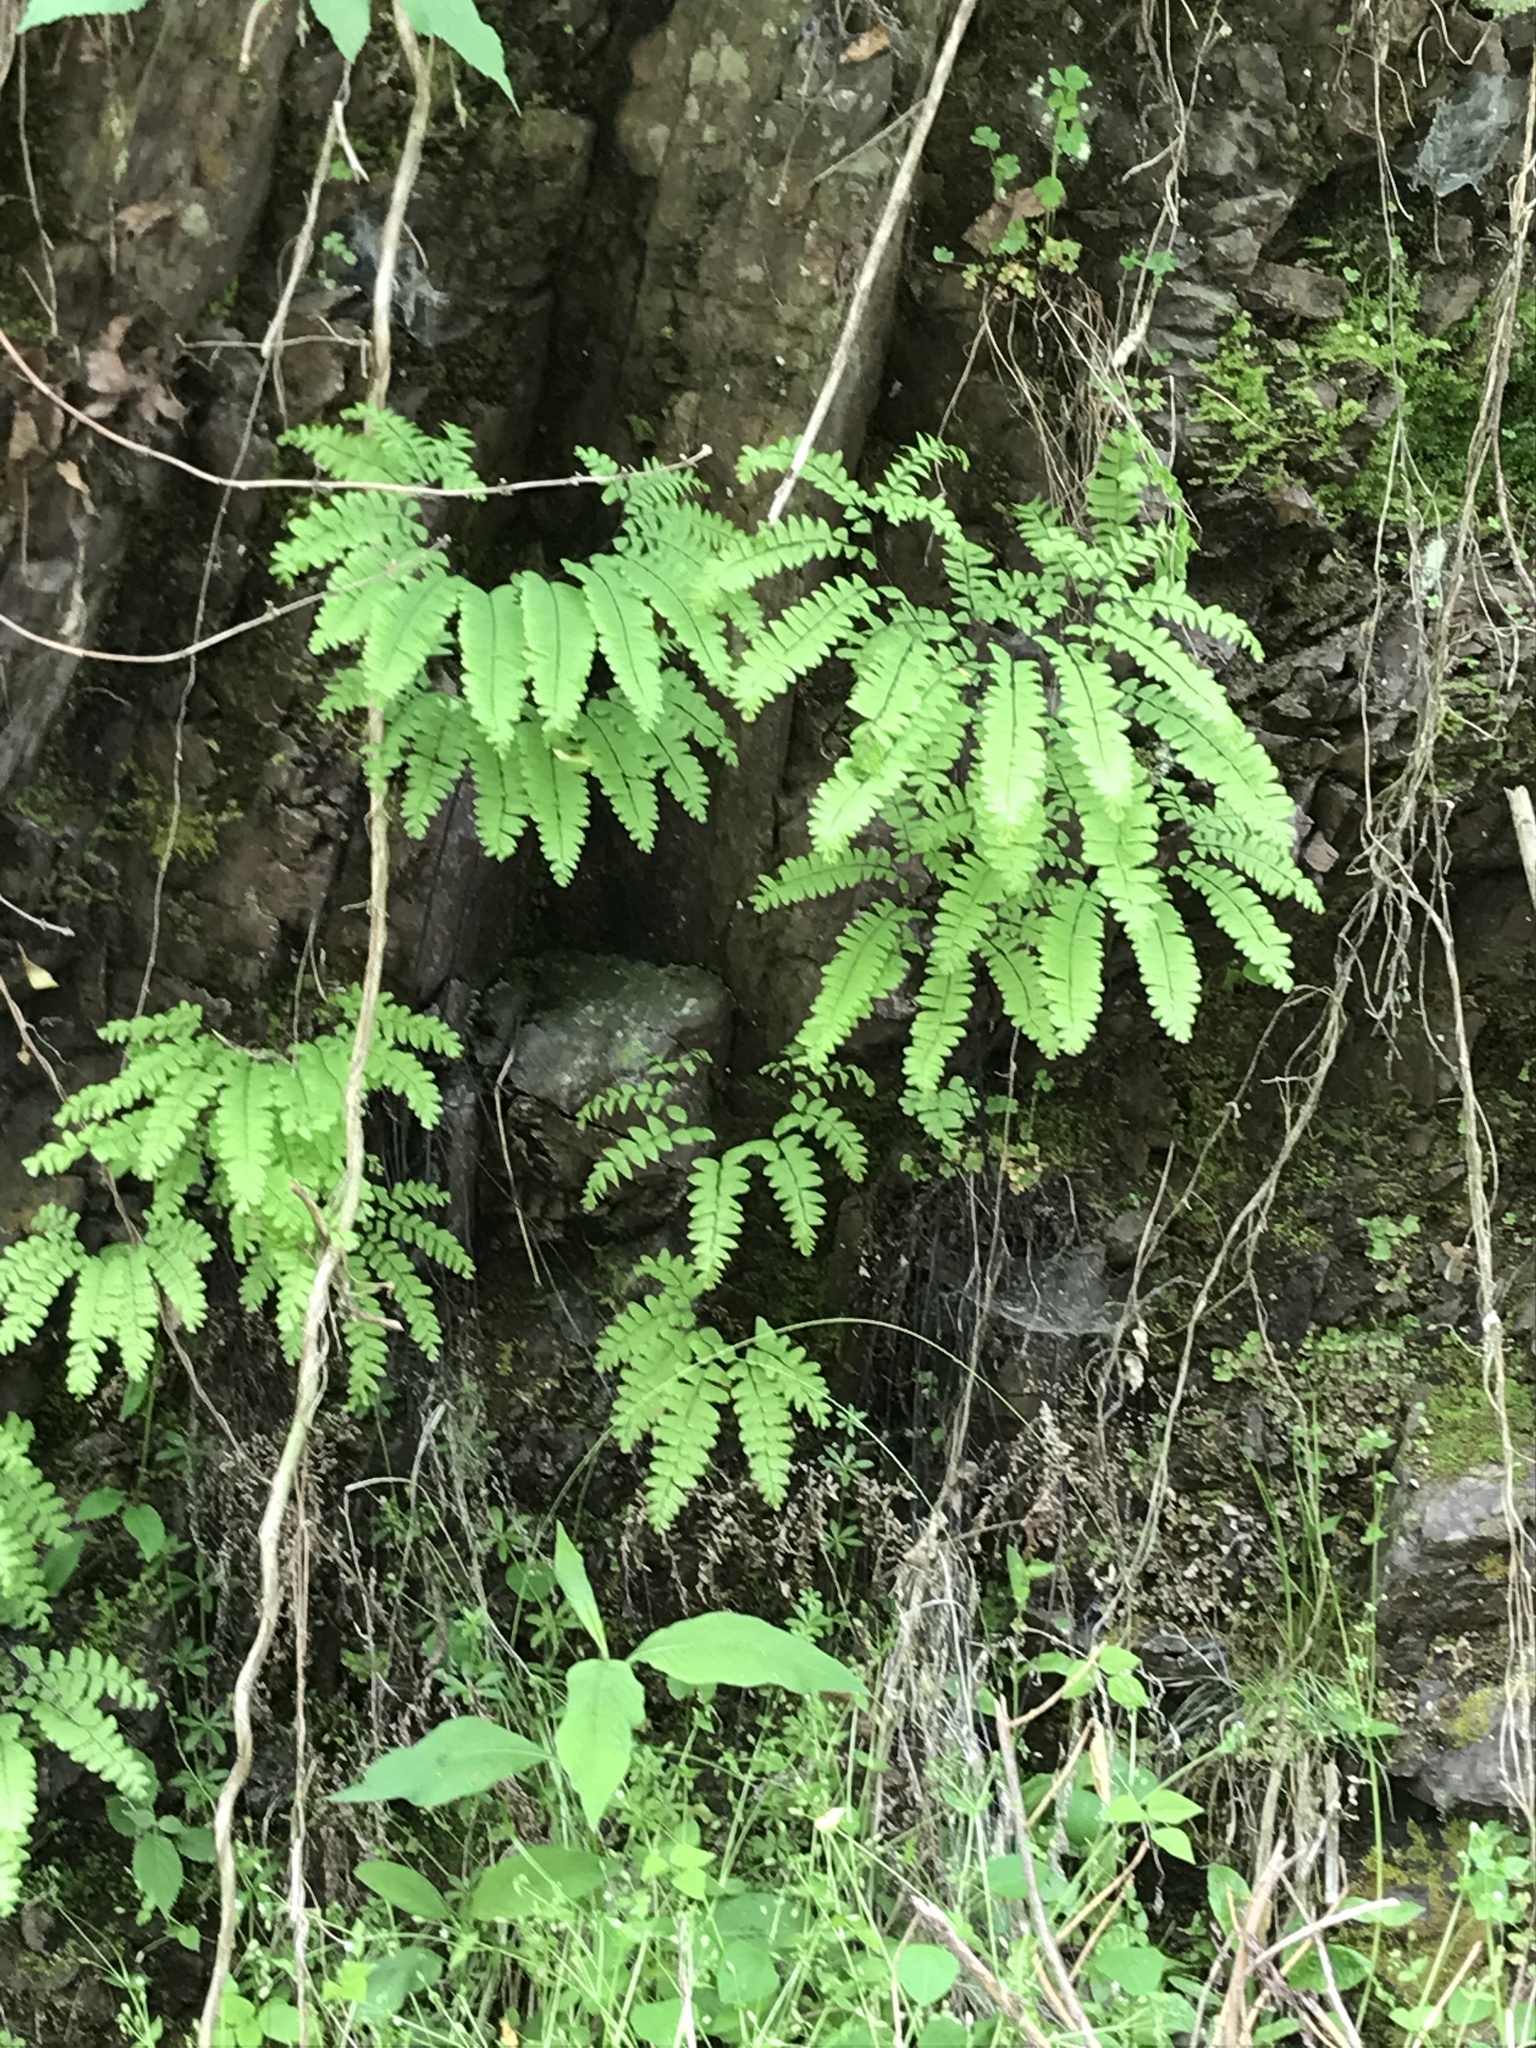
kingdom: Plantae
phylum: Tracheophyta
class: Polypodiopsida
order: Polypodiales
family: Pteridaceae
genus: Adiantum
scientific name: Adiantum pedatum
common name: Five-finger fern
